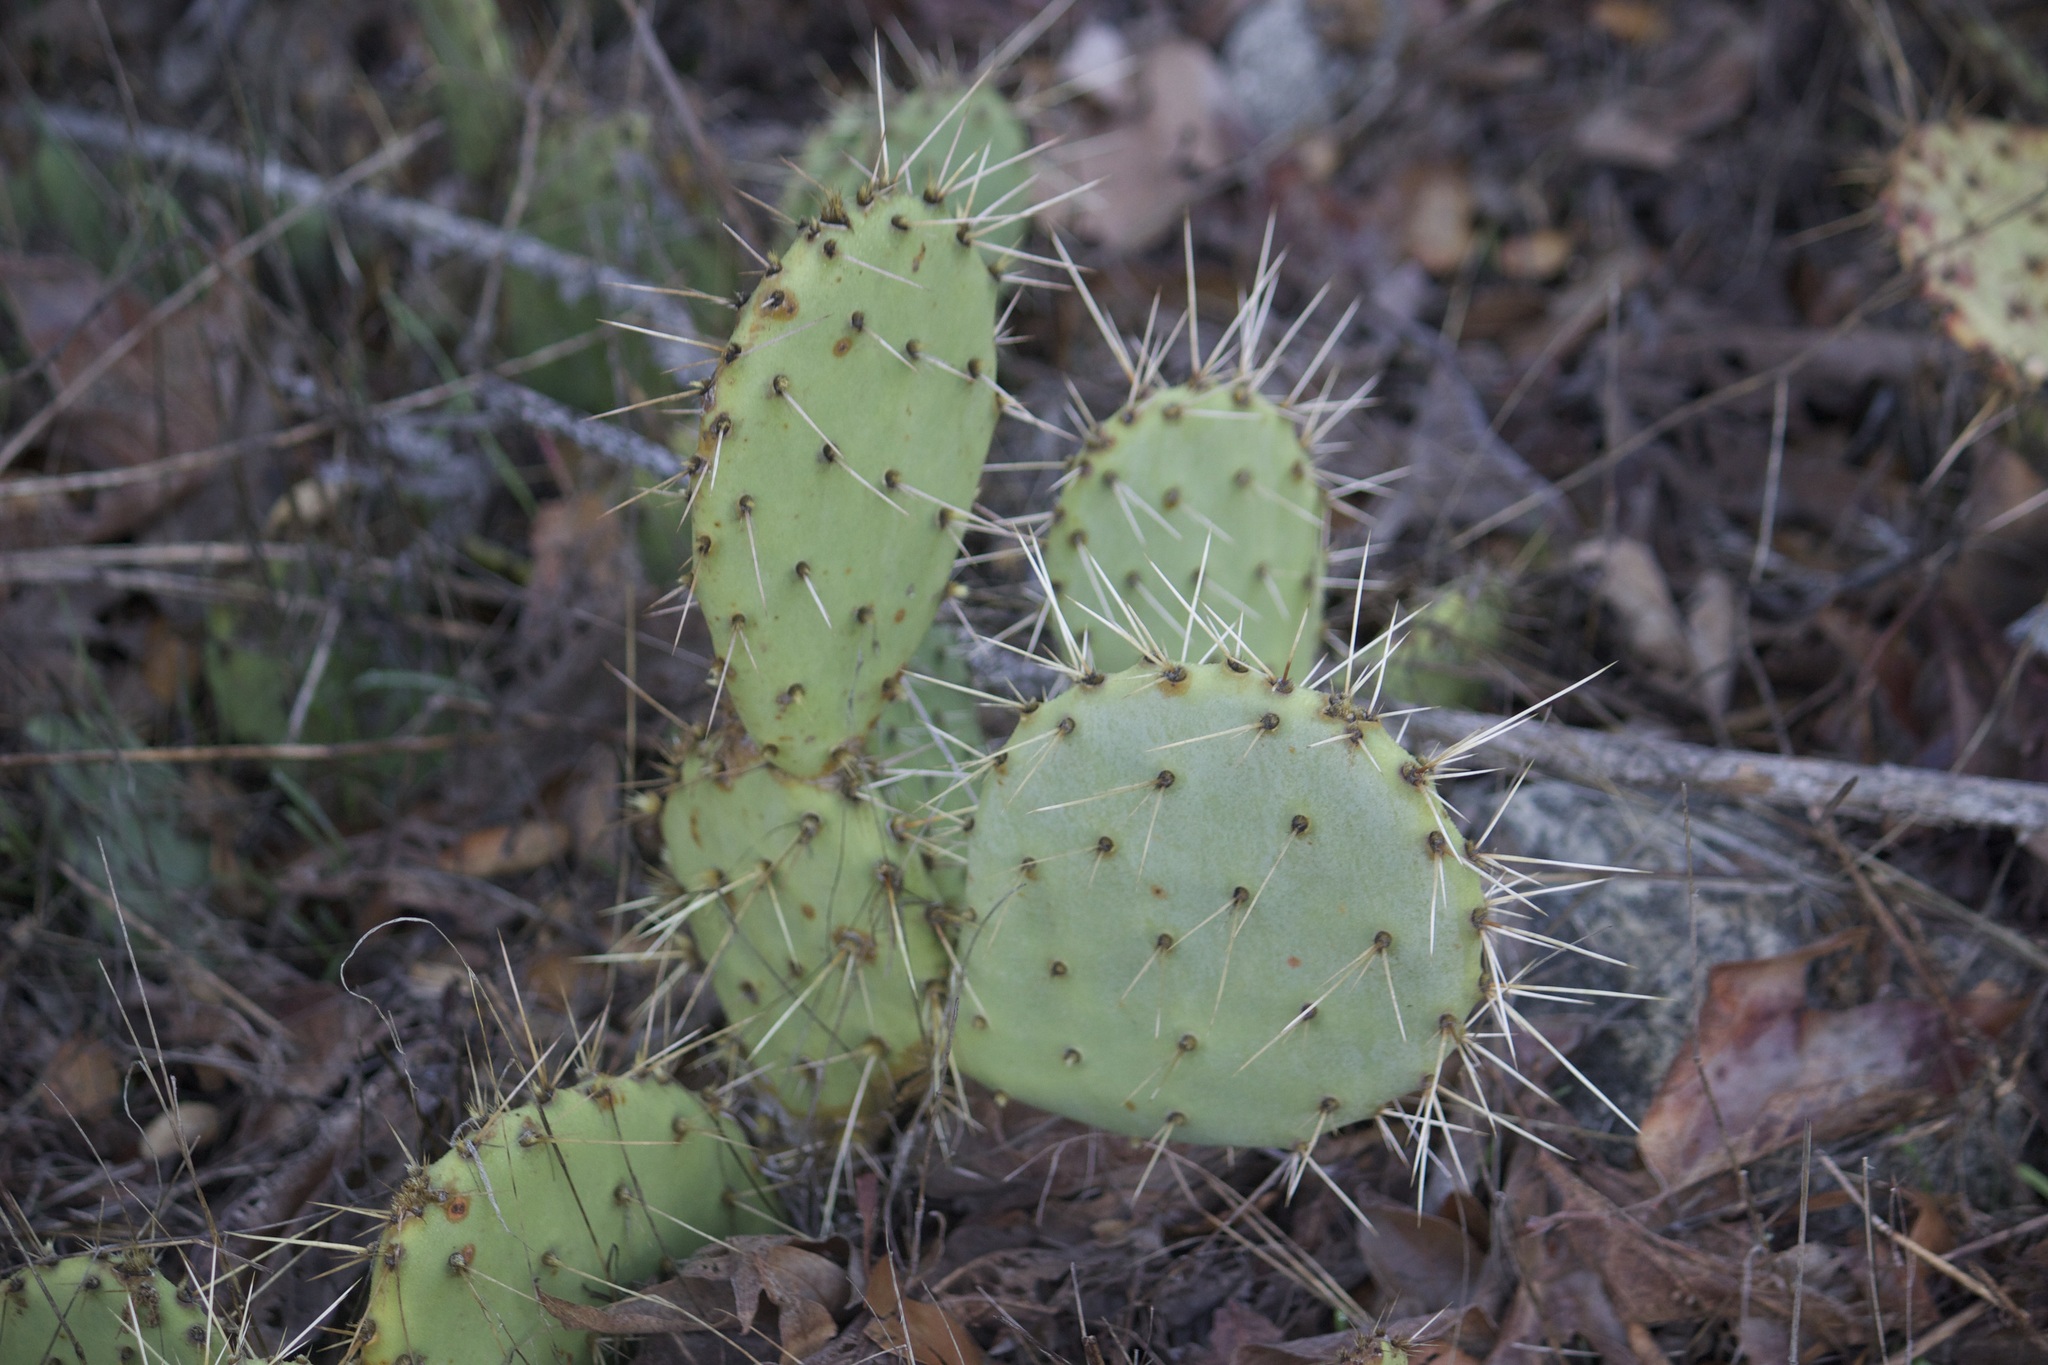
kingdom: Plantae
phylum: Tracheophyta
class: Magnoliopsida
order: Caryophyllales
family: Cactaceae
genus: Opuntia
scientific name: Opuntia littoralis
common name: Coastal prickly-pear
